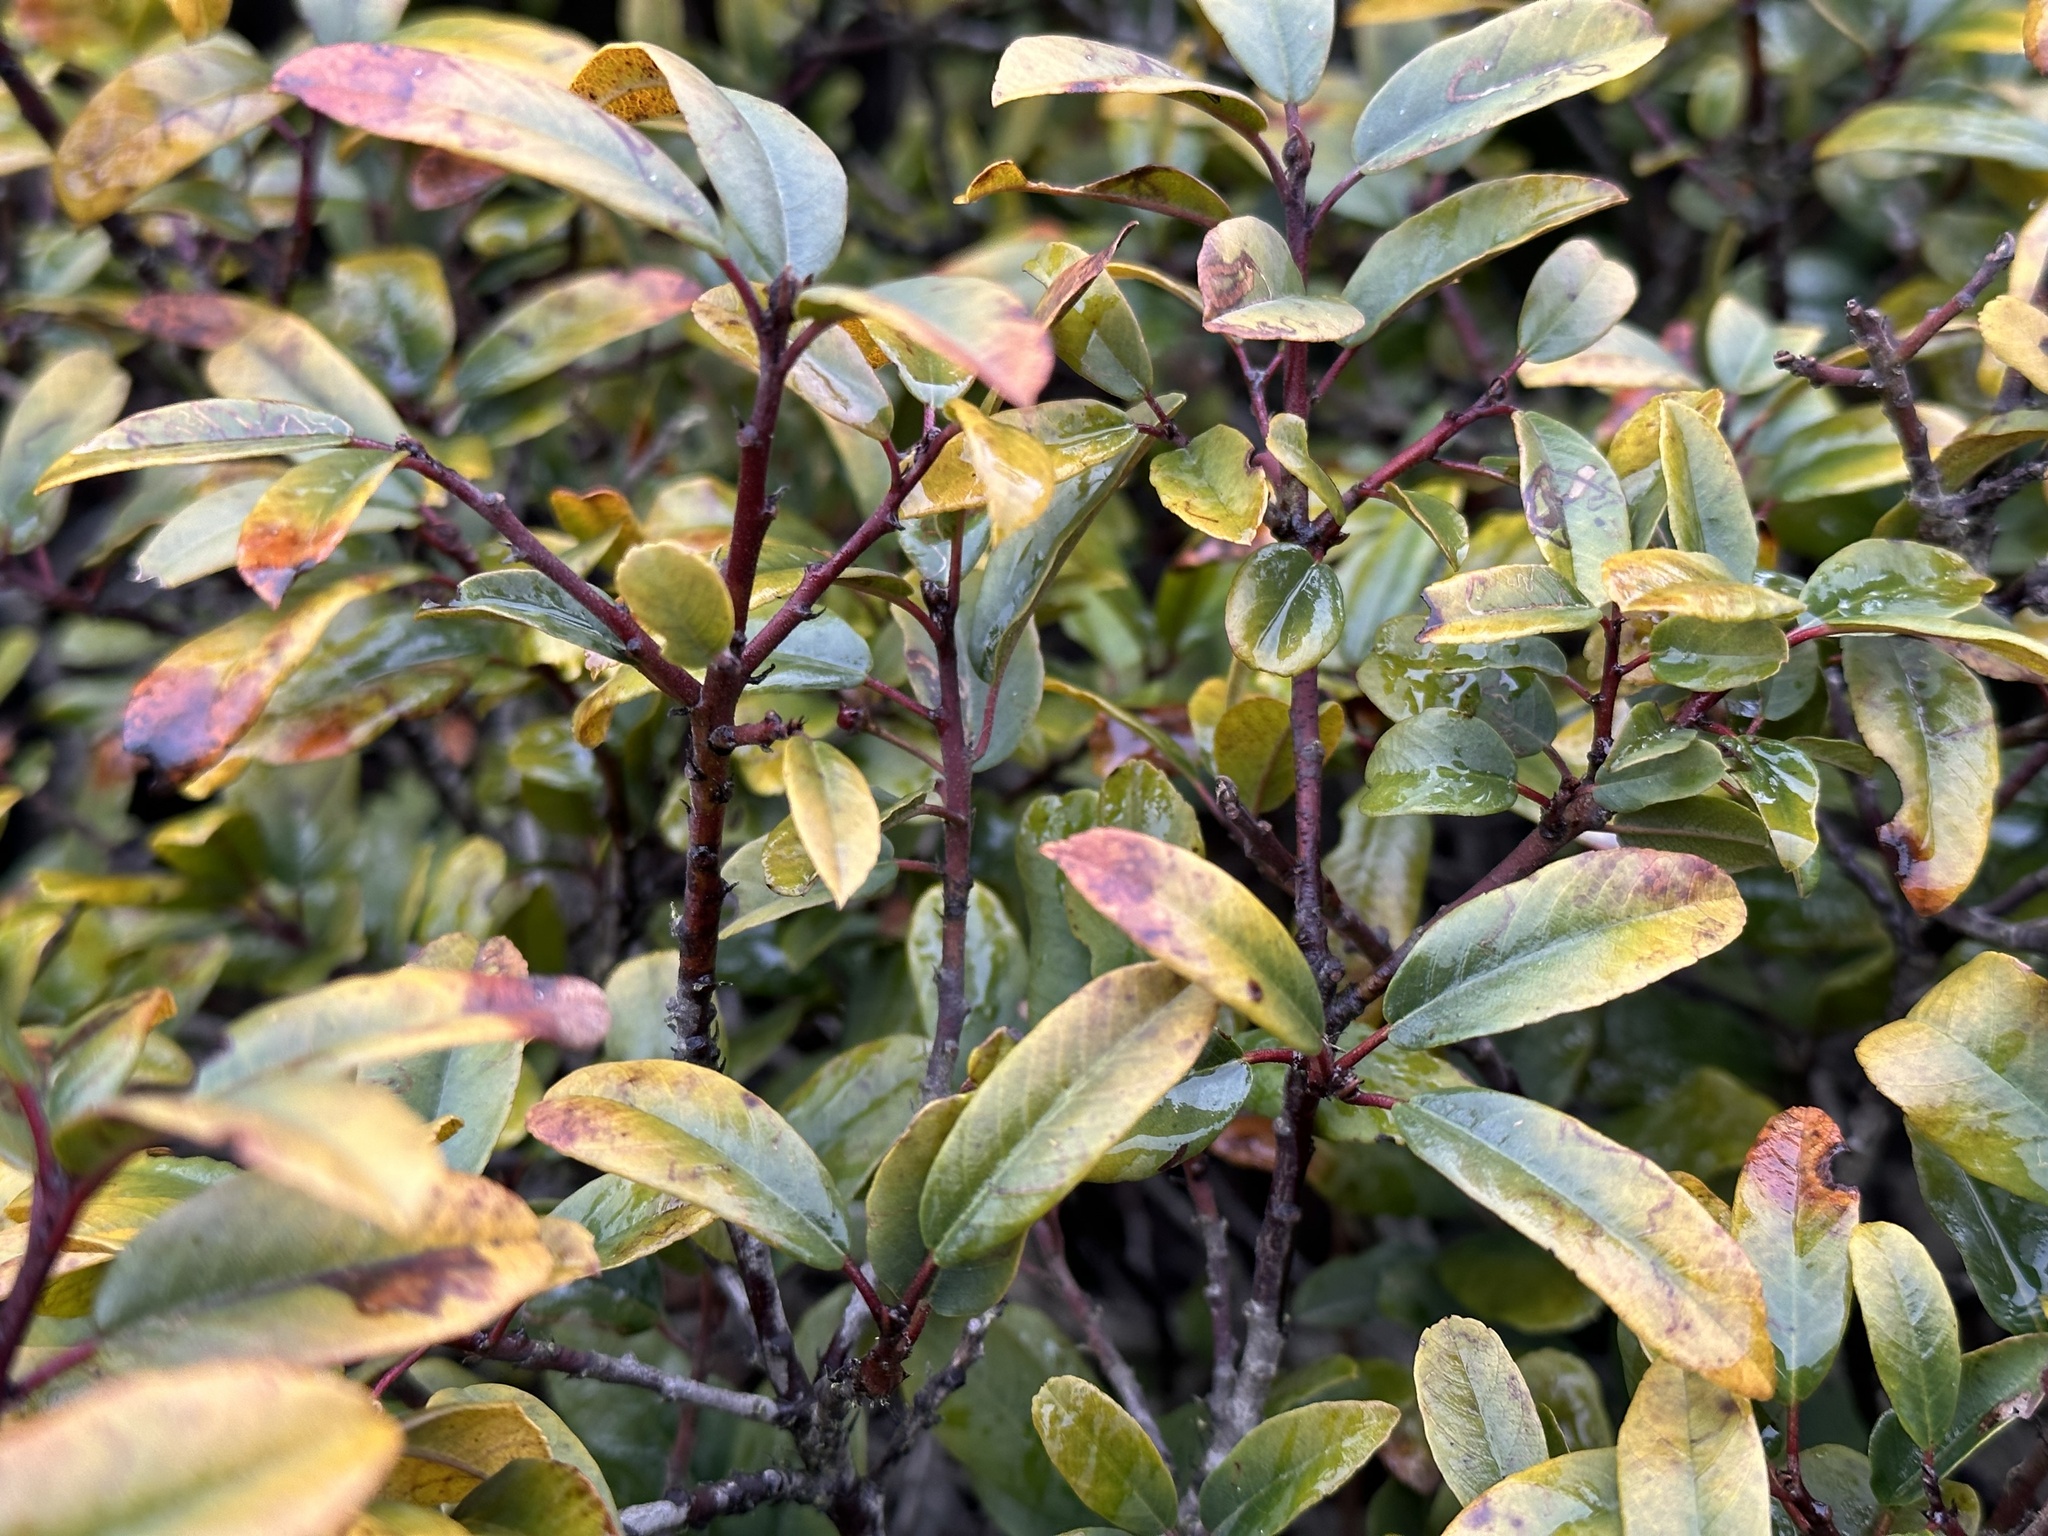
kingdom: Plantae
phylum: Tracheophyta
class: Magnoliopsida
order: Rosales
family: Rhamnaceae
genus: Frangula
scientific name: Frangula californica
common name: California buckthorn
